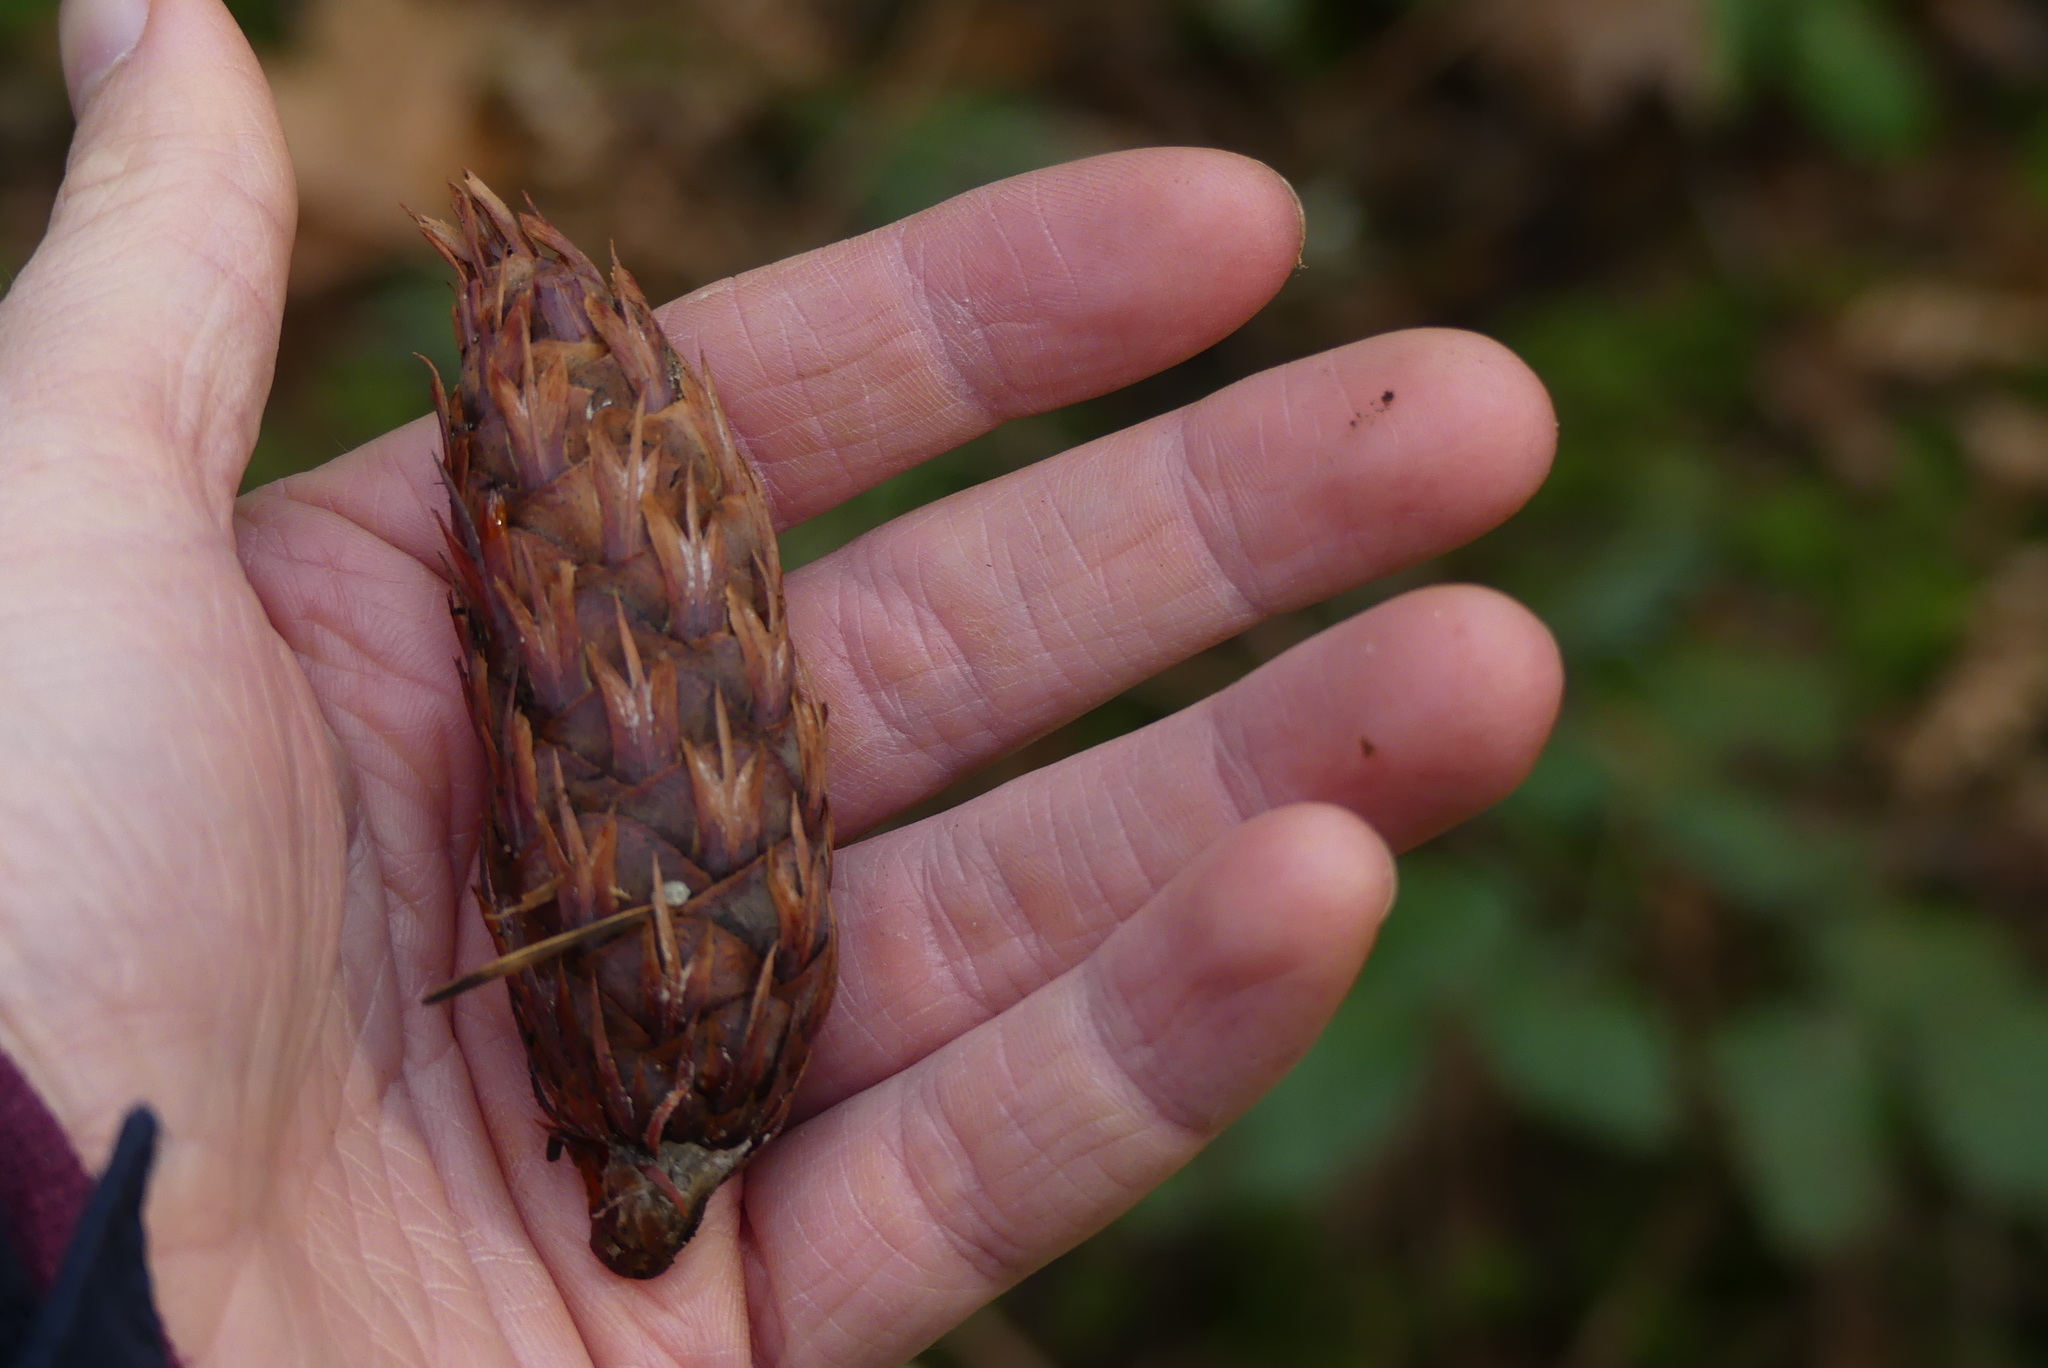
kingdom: Plantae
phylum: Tracheophyta
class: Pinopsida
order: Pinales
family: Pinaceae
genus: Pseudotsuga
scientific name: Pseudotsuga menziesii
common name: Douglas fir
